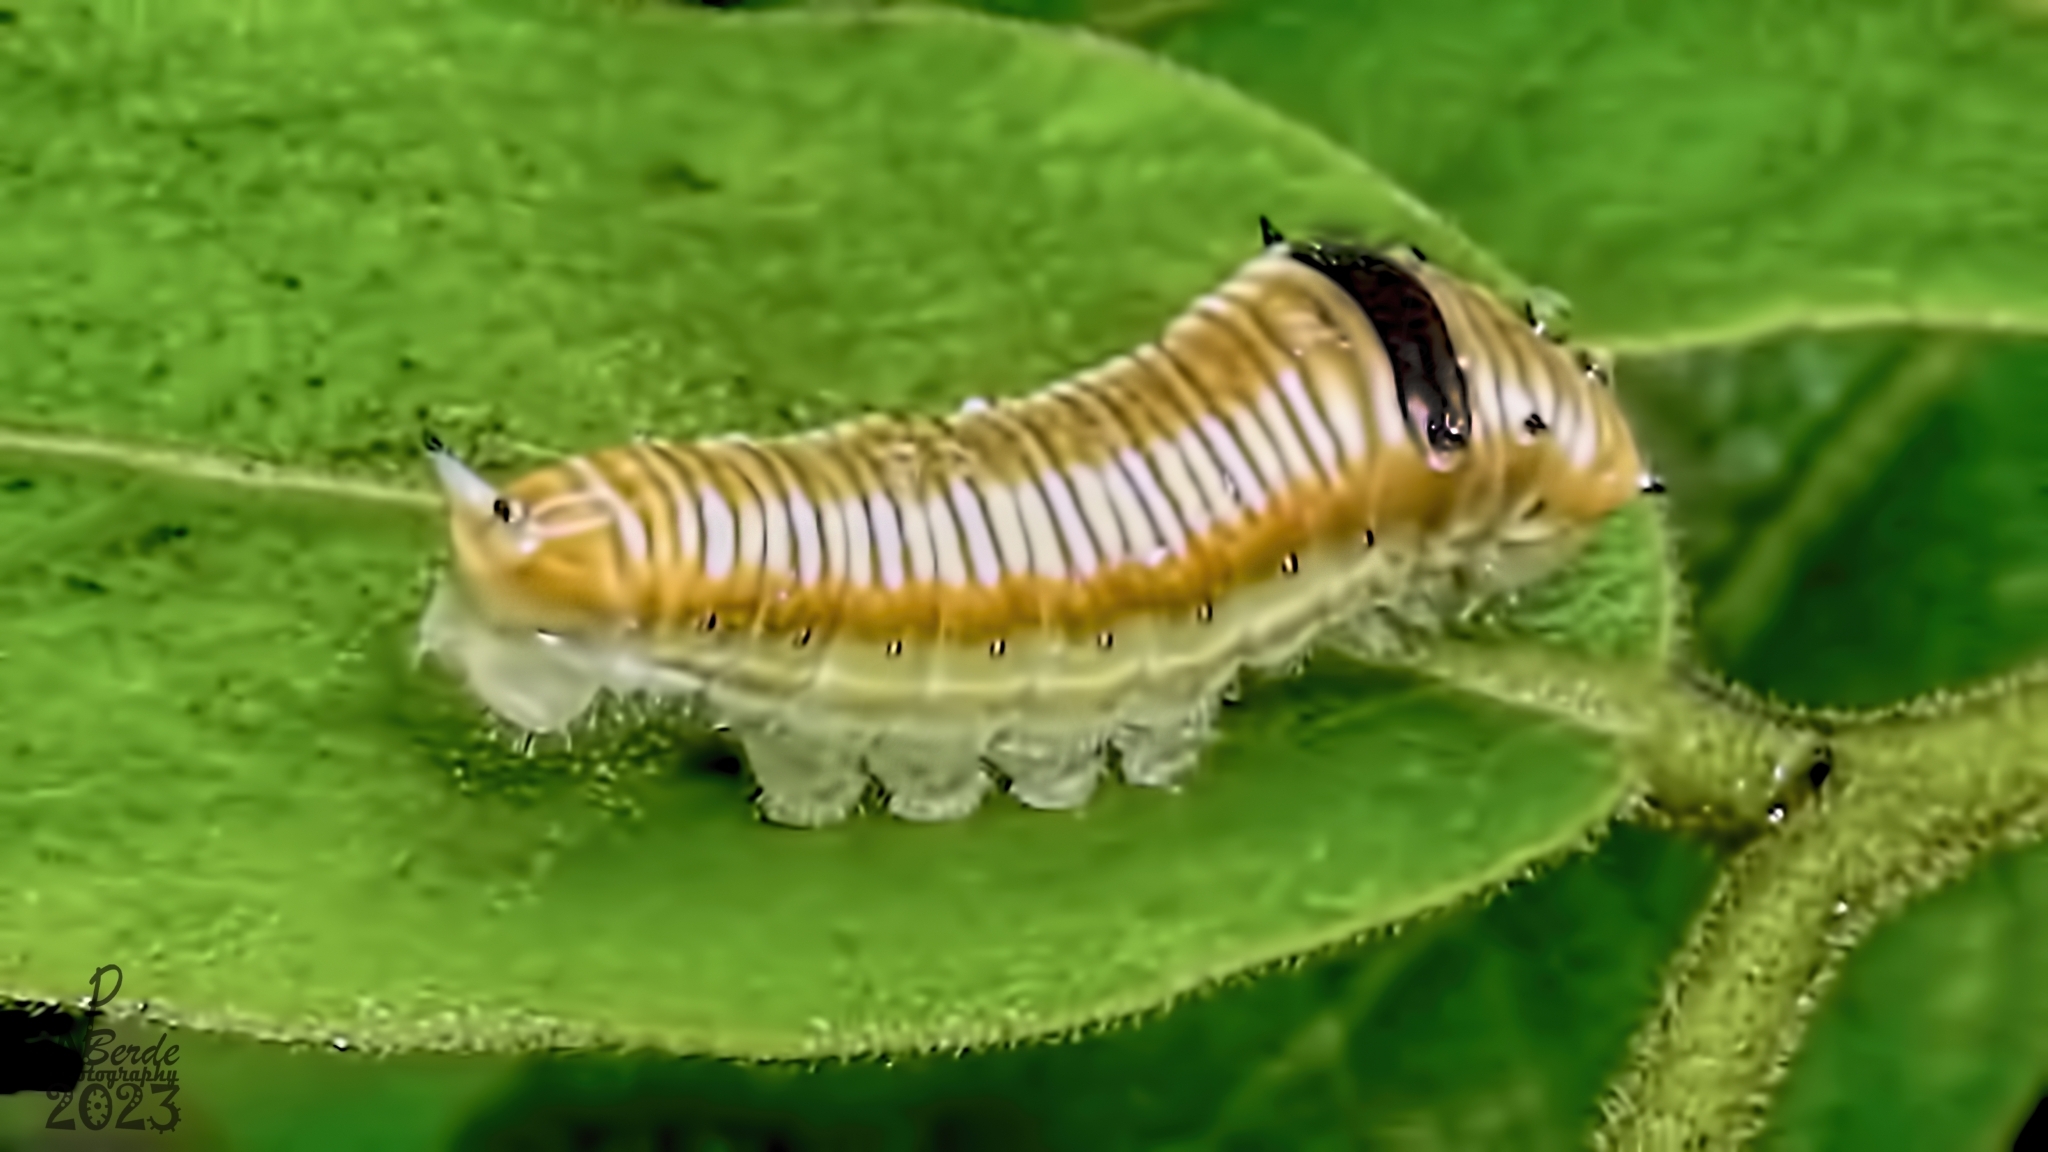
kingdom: Animalia
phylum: Arthropoda
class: Insecta
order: Lepidoptera
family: Papilionidae
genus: Graphium
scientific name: Graphium nomius
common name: Spot swordtail
